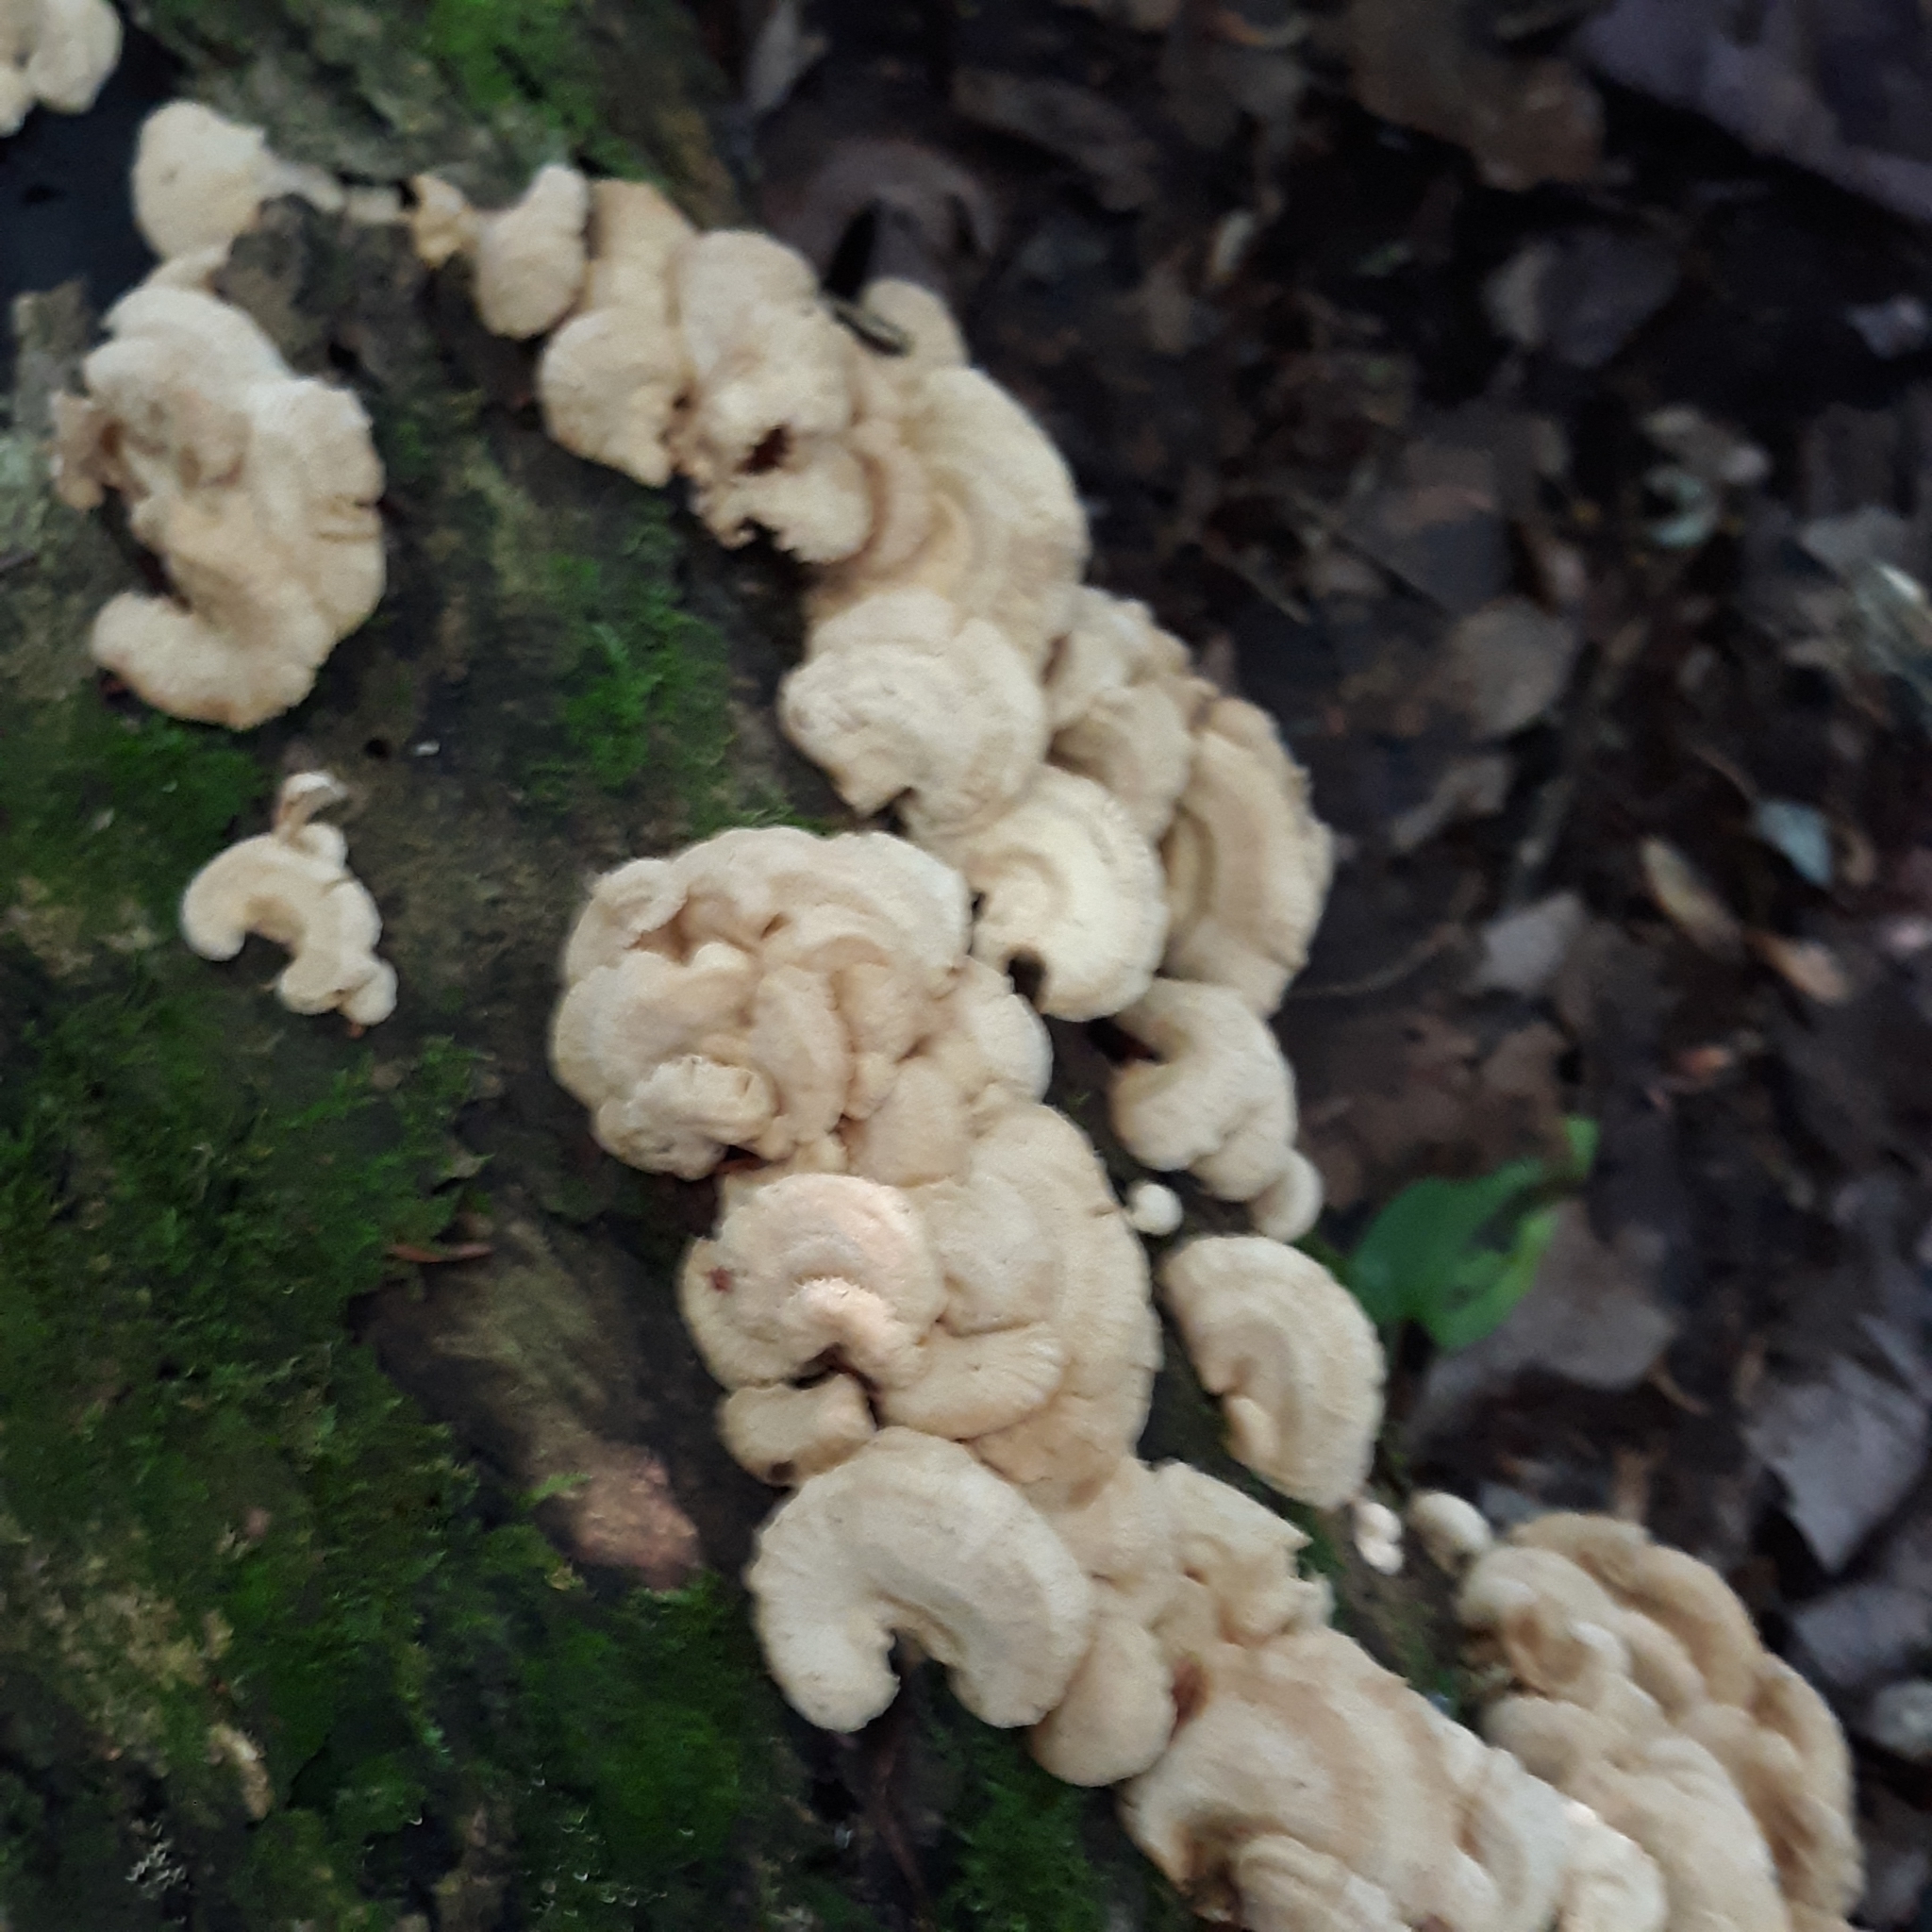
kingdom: Fungi
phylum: Basidiomycota
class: Agaricomycetes
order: Agaricales
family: Mycenaceae
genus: Panellus
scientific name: Panellus stipticus
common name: Bitter oysterling
